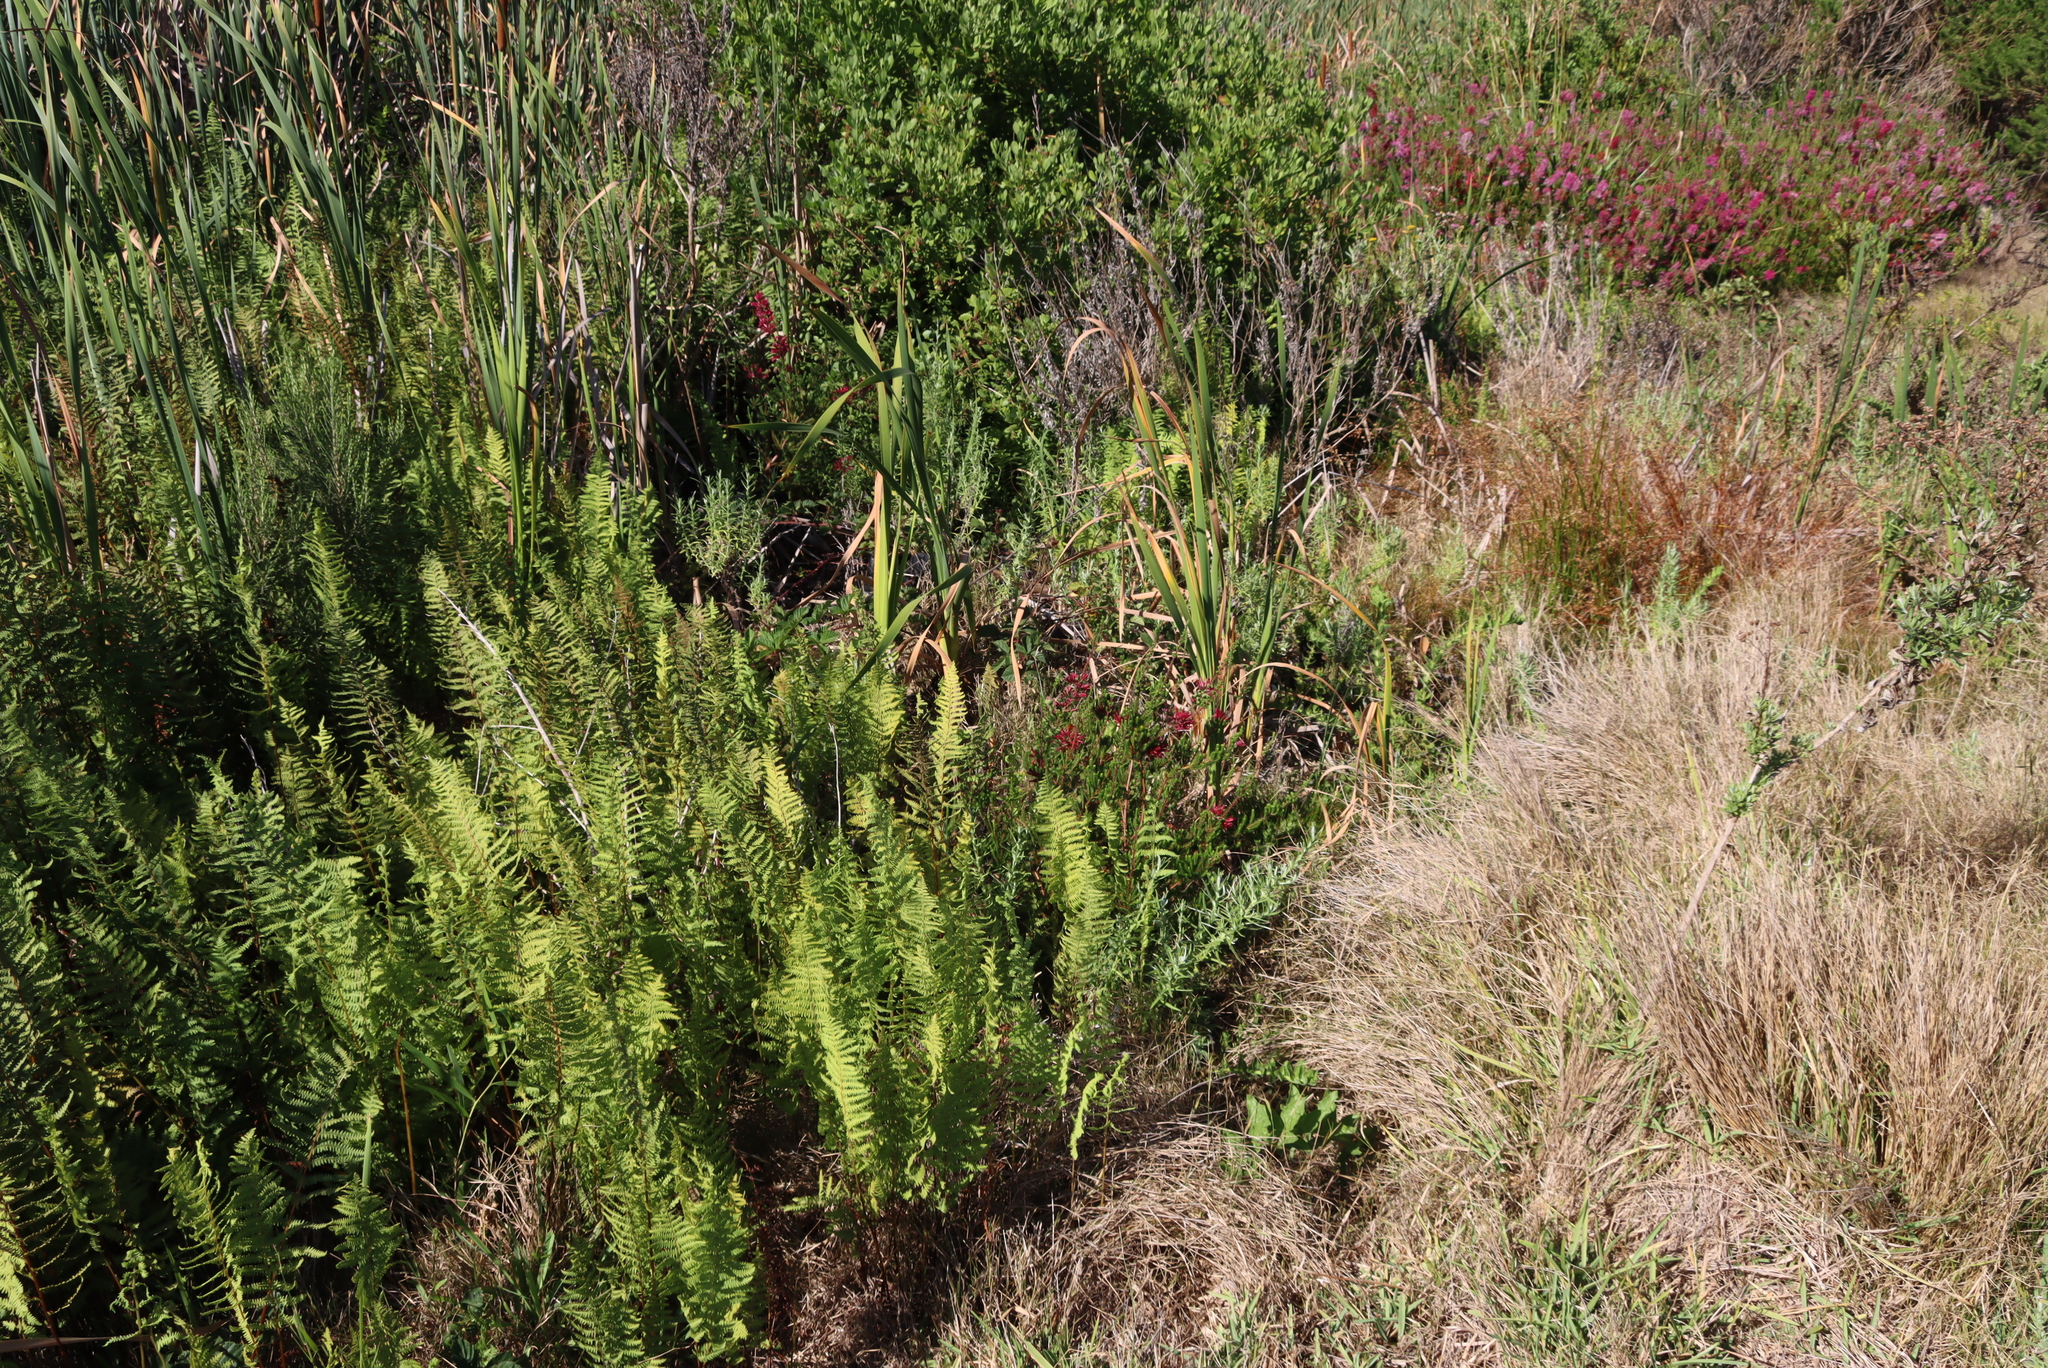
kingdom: Plantae
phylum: Tracheophyta
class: Magnoliopsida
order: Ericales
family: Ericaceae
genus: Erica
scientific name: Erica verticillata
